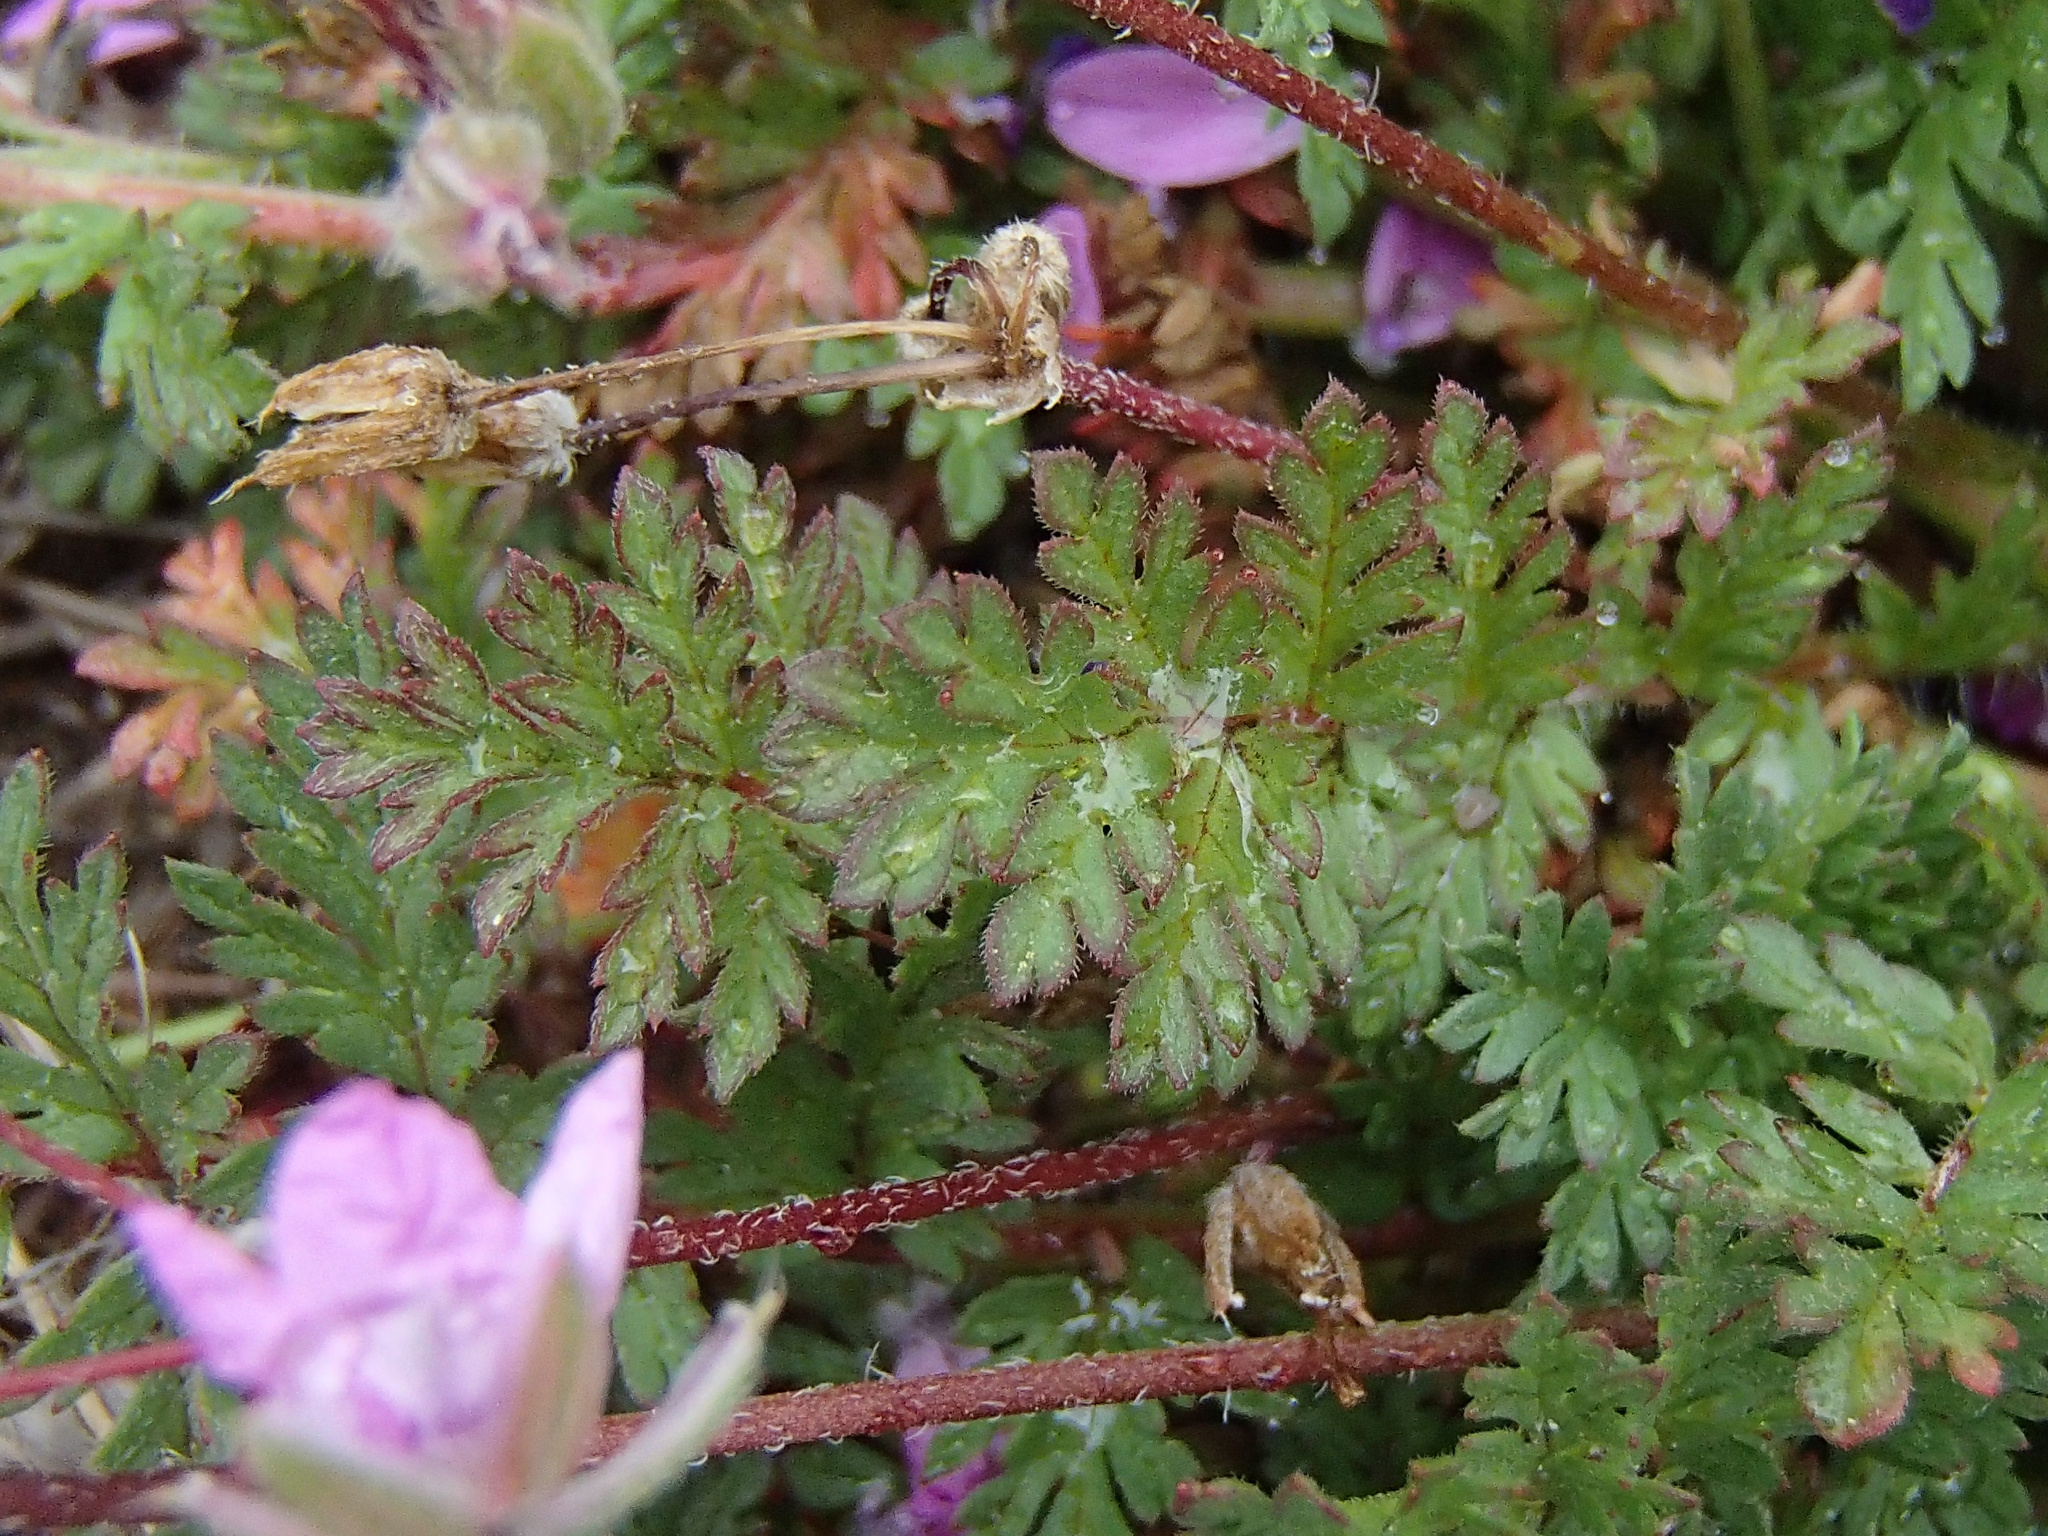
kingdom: Plantae
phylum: Tracheophyta
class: Magnoliopsida
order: Geraniales
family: Geraniaceae
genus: Erodium
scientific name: Erodium cicutarium
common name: Common stork's-bill
